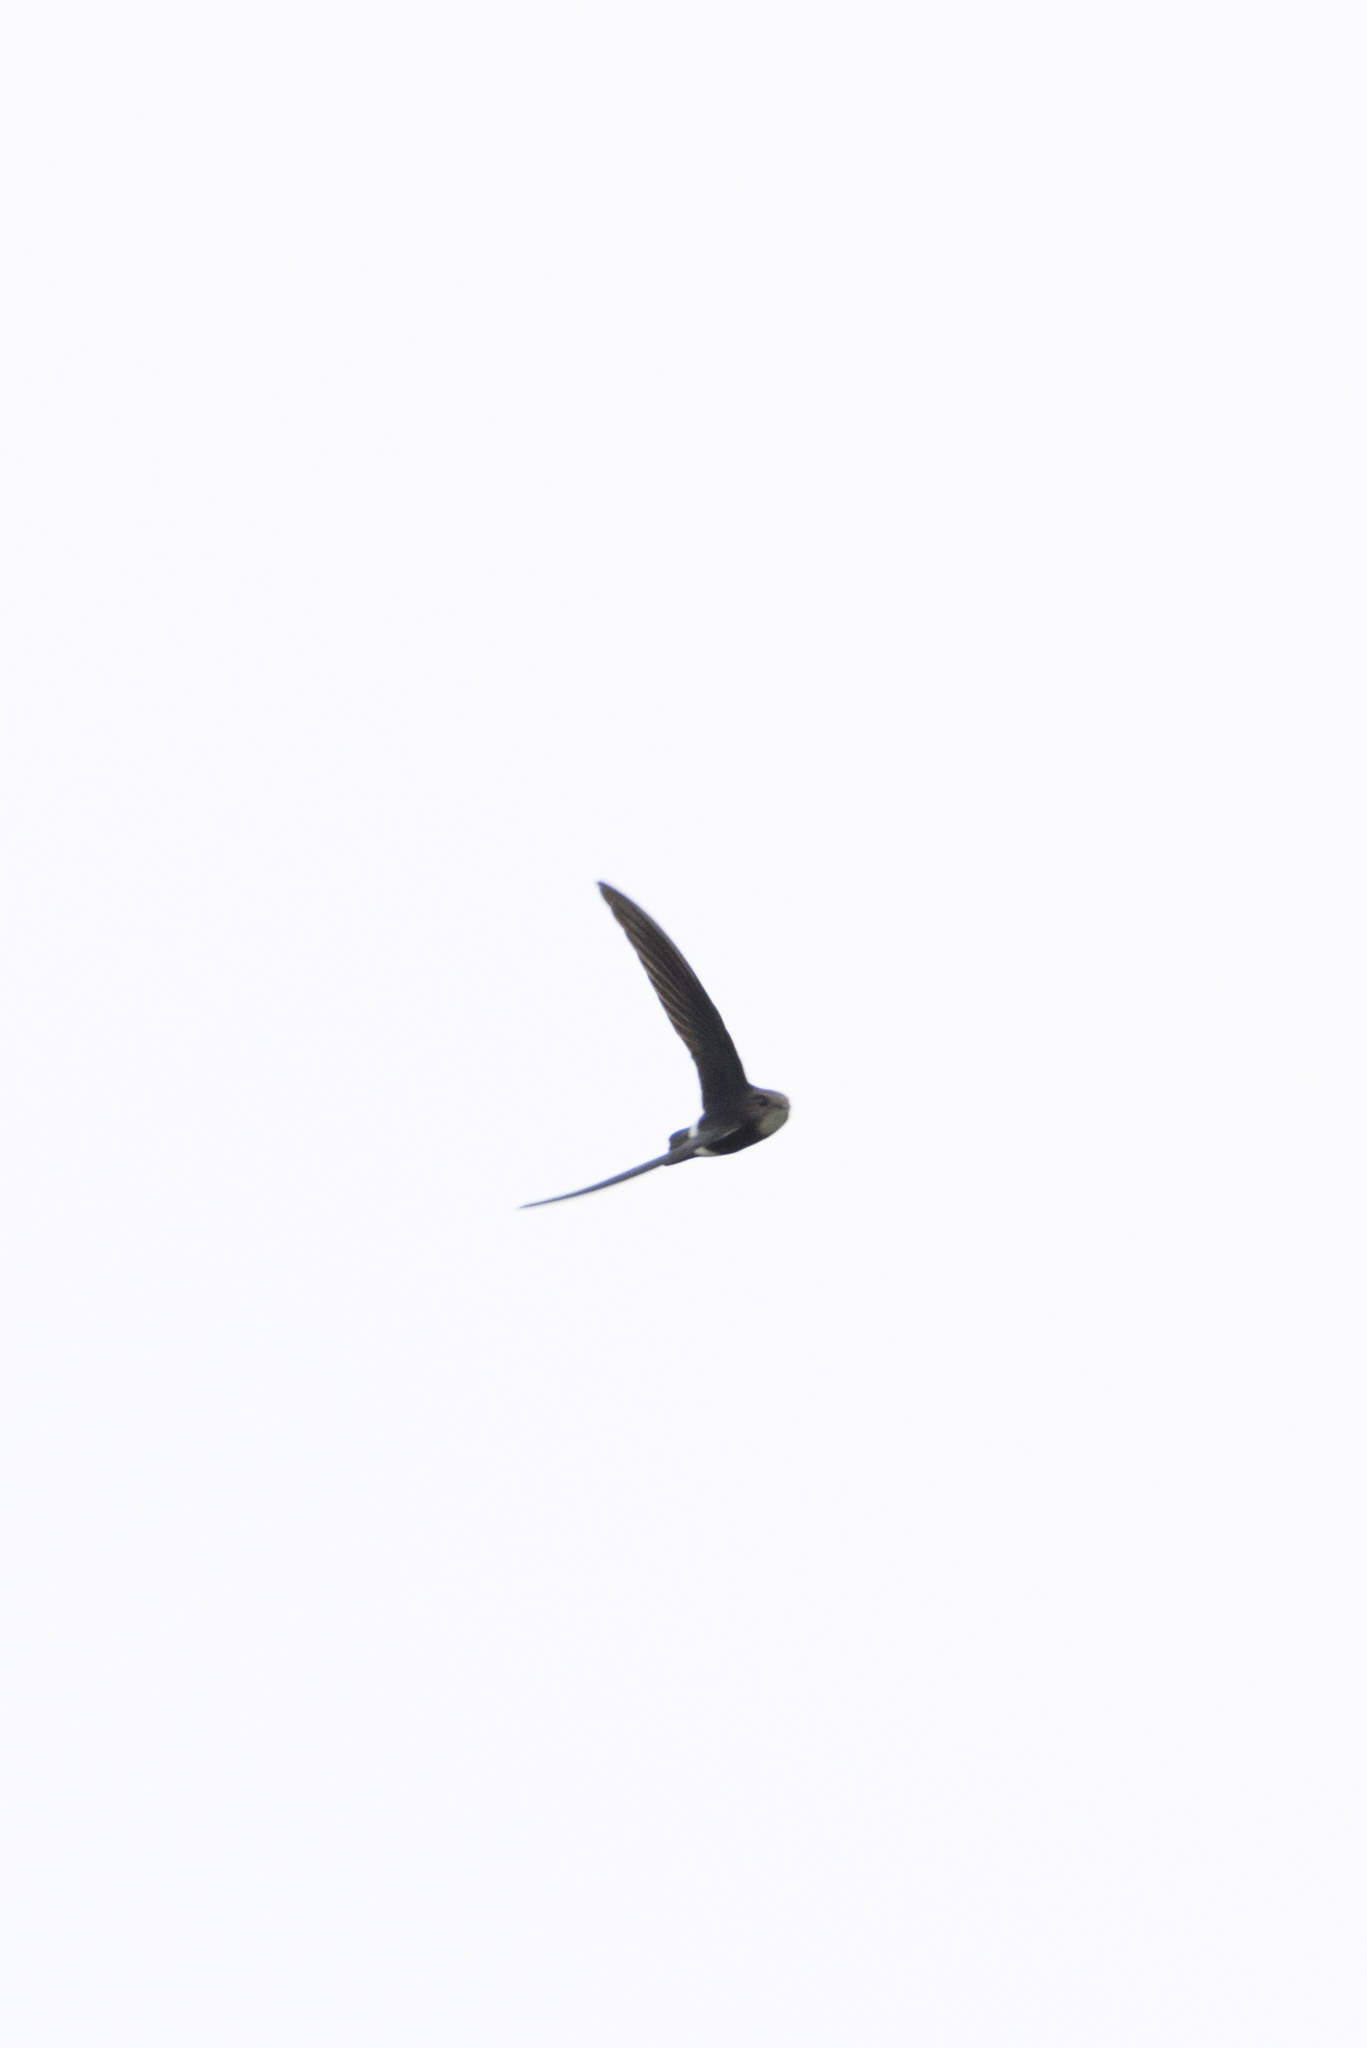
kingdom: Animalia
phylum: Chordata
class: Aves
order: Apodiformes
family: Apodidae
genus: Apus
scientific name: Apus nipalensis
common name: House swift
